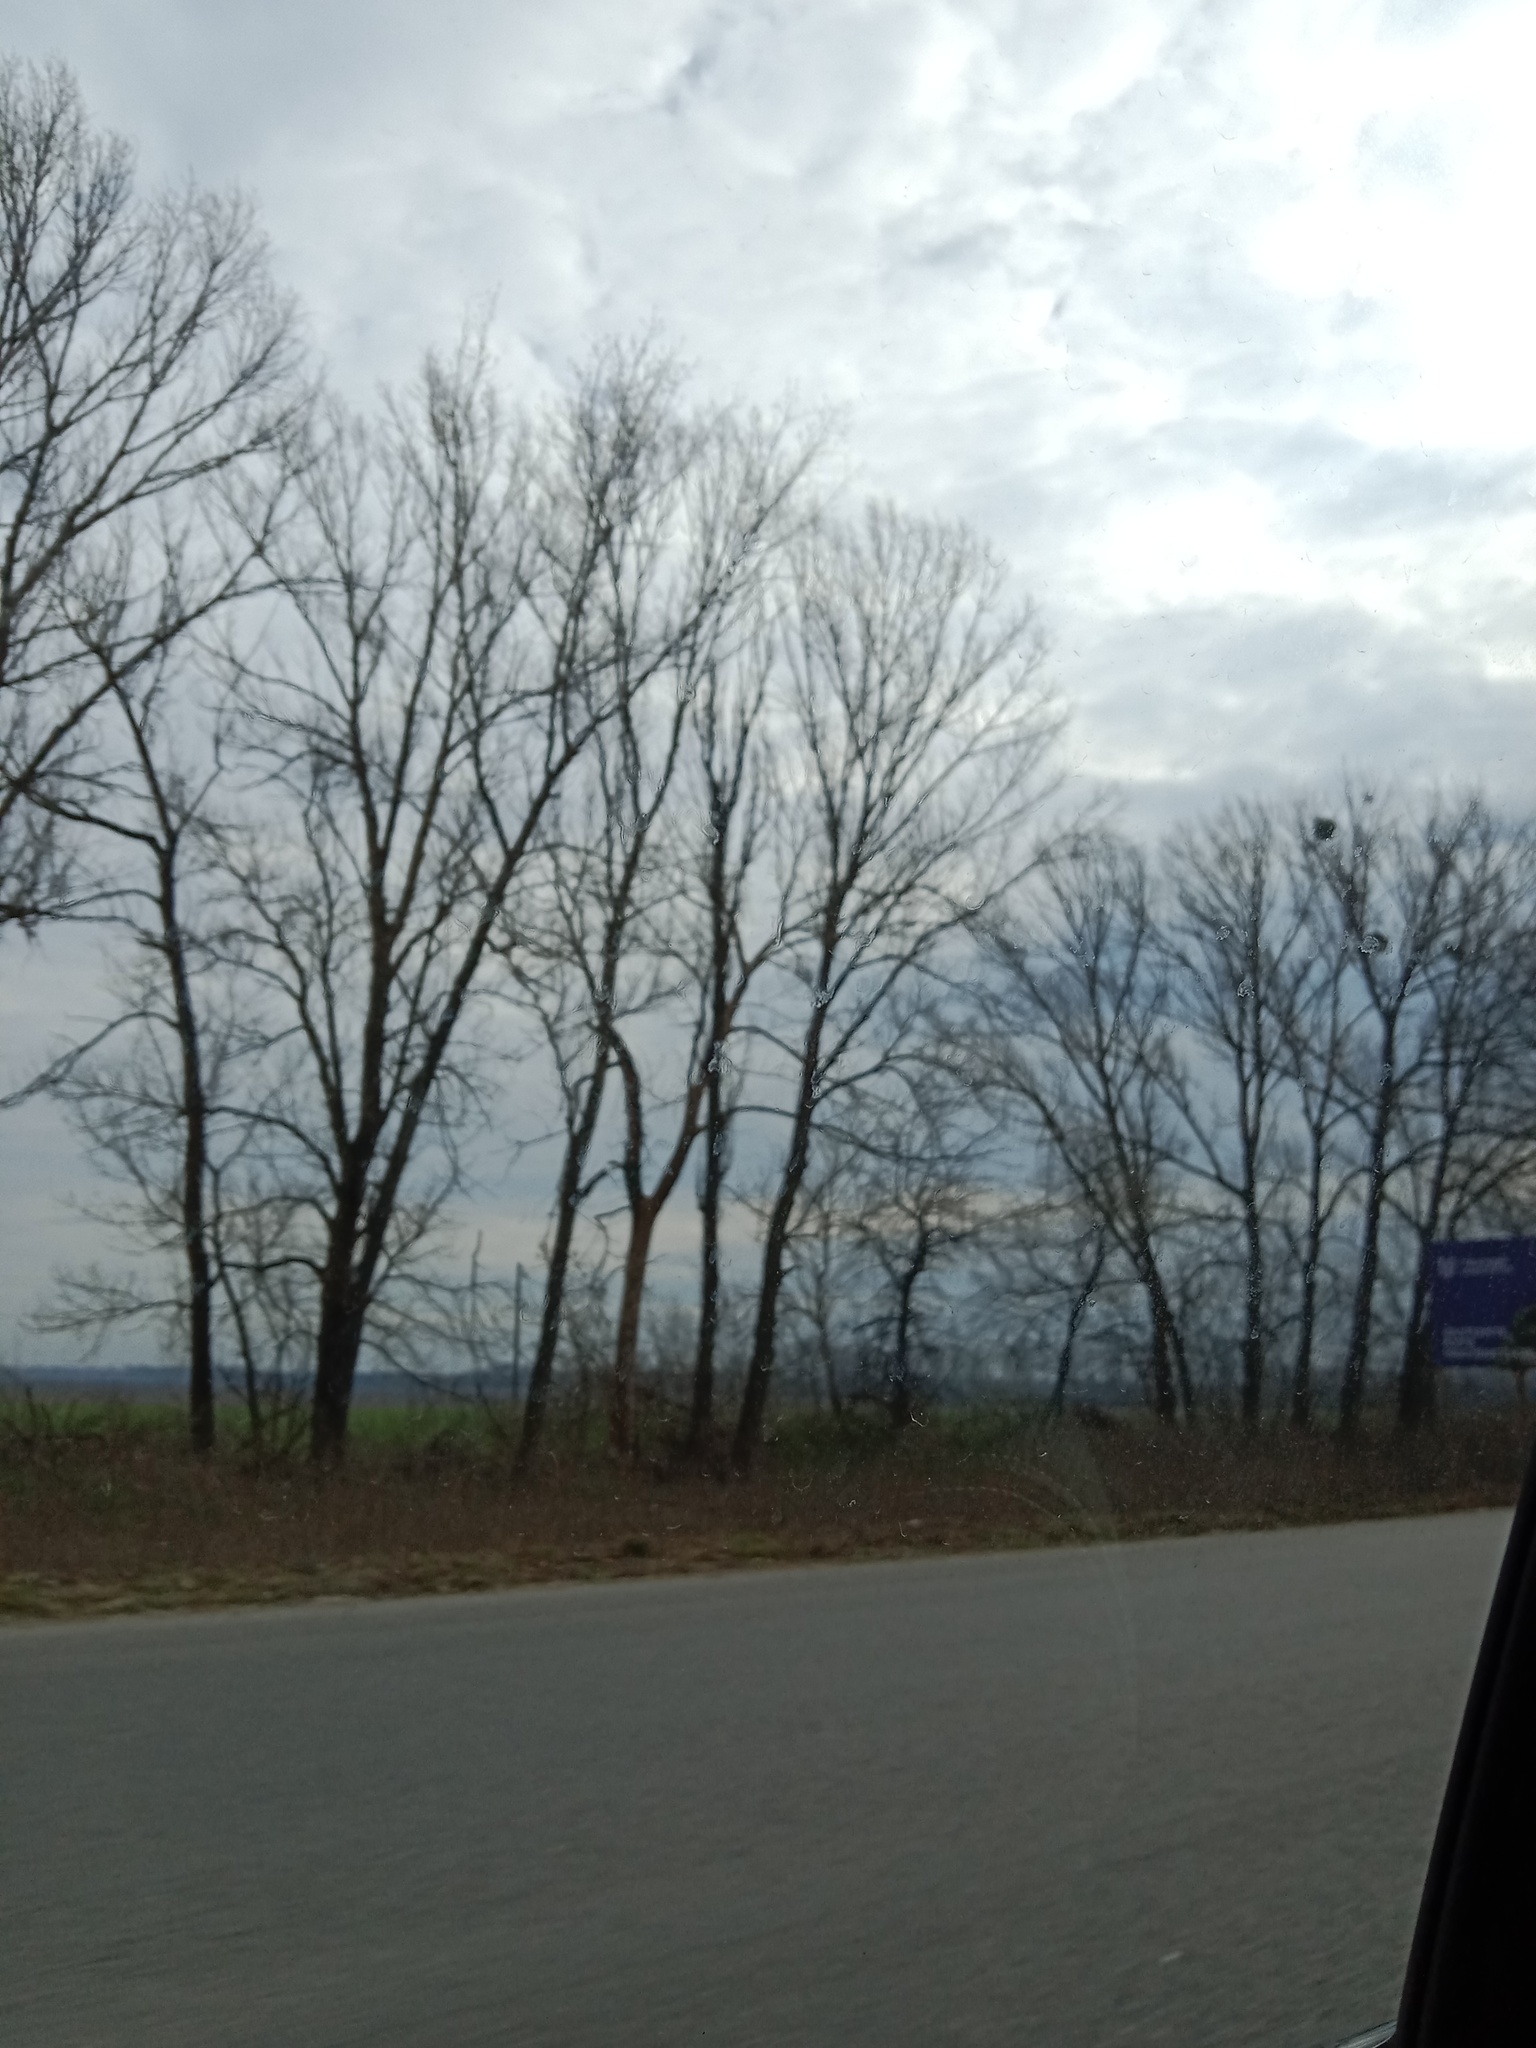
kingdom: Plantae
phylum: Tracheophyta
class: Magnoliopsida
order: Santalales
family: Viscaceae
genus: Viscum
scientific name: Viscum album
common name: Mistletoe
